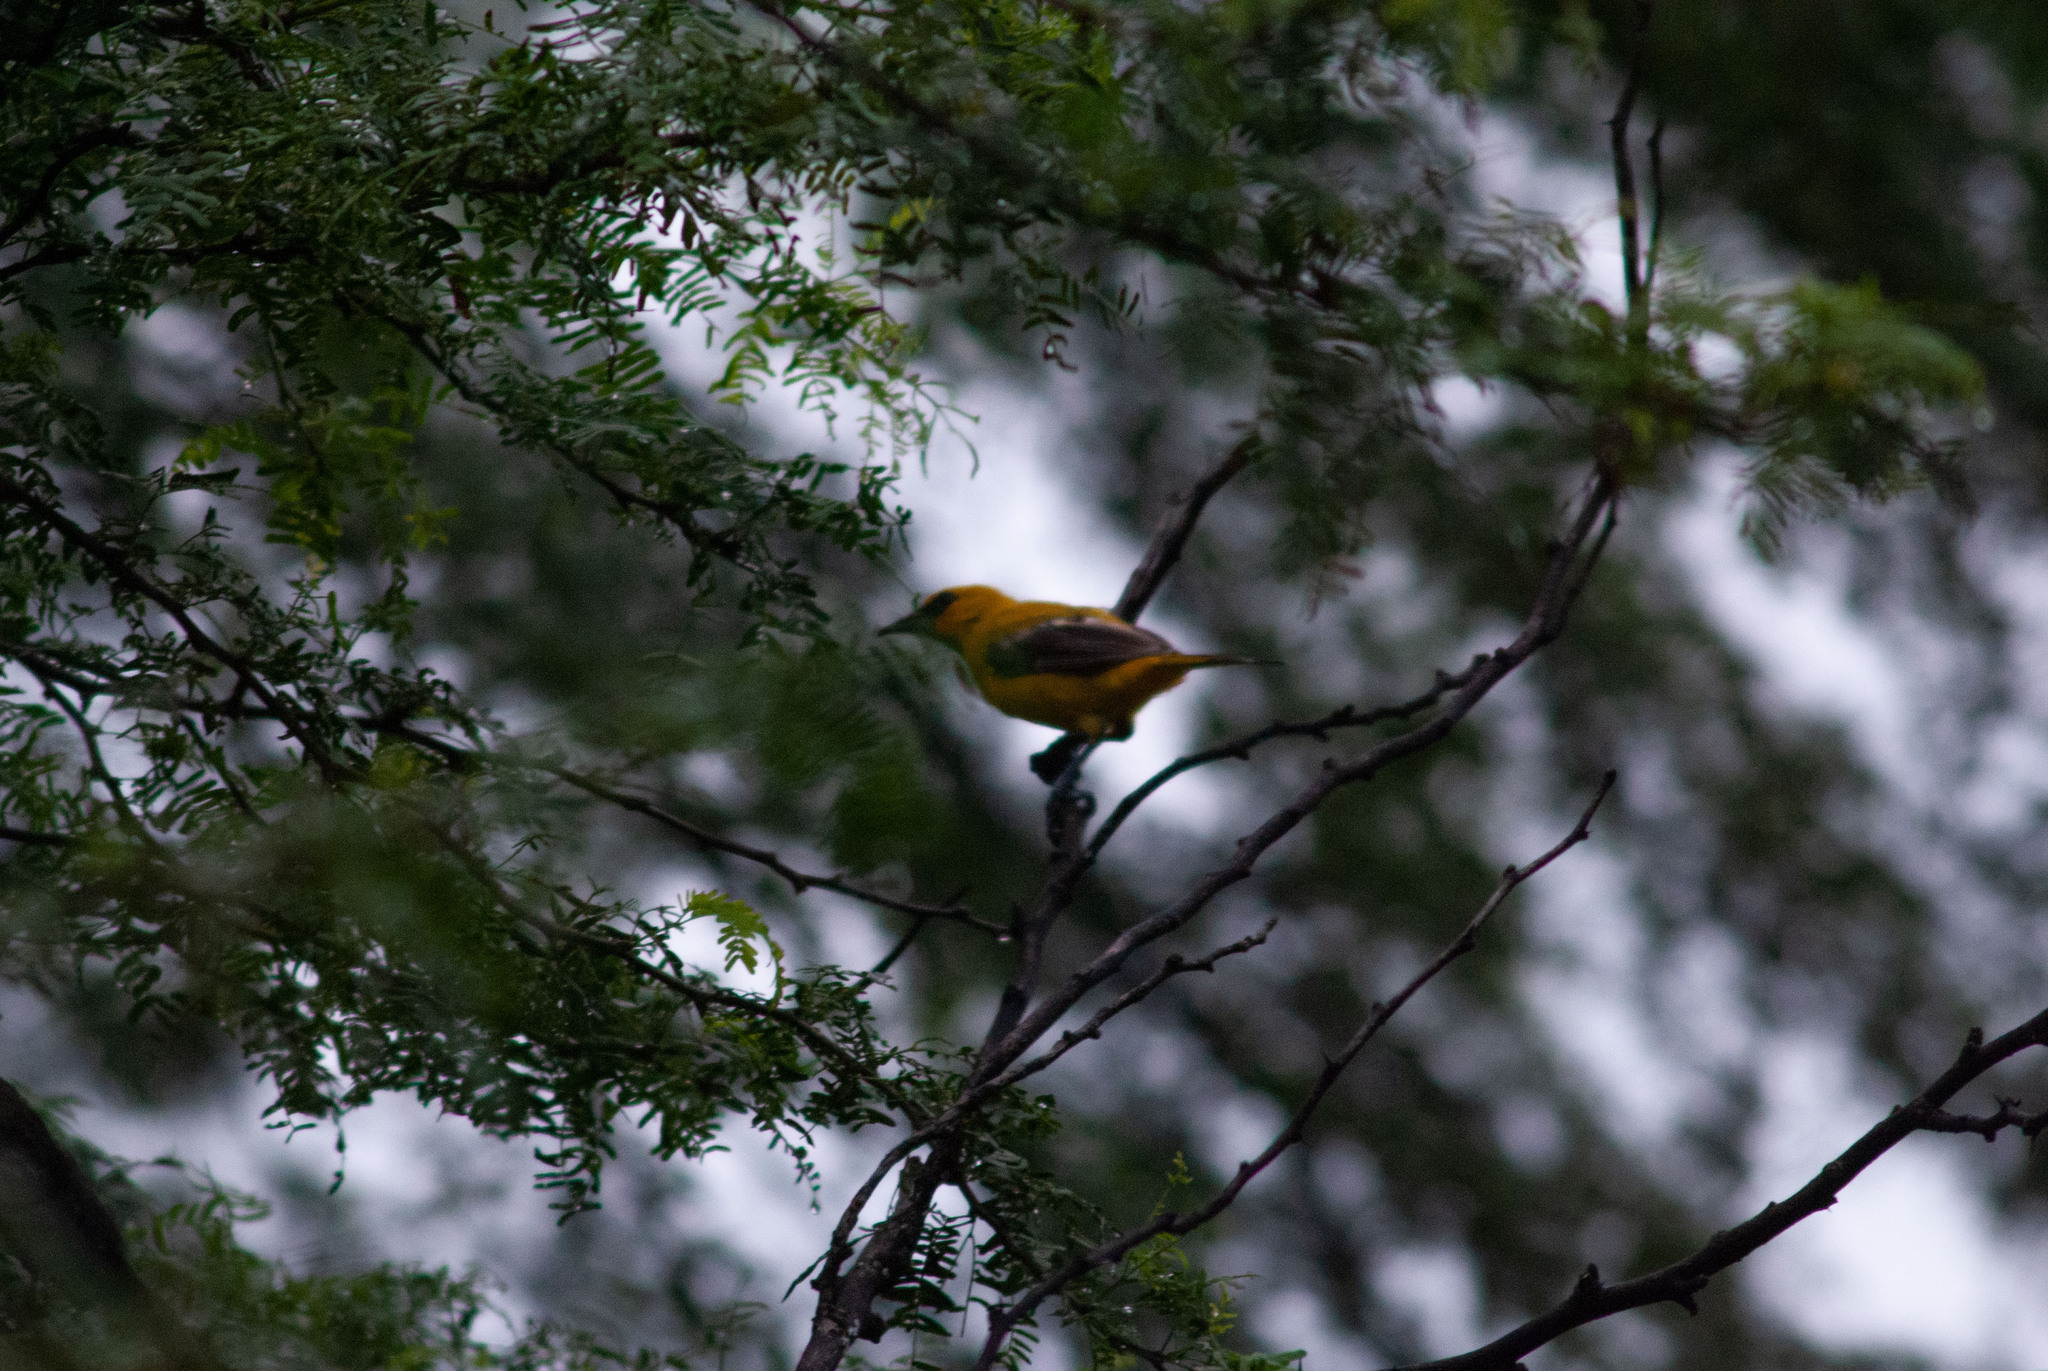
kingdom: Animalia
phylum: Chordata
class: Aves
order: Passeriformes
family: Icteridae
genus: Icterus
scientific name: Icterus nigrogularis
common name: Yellow oriole
